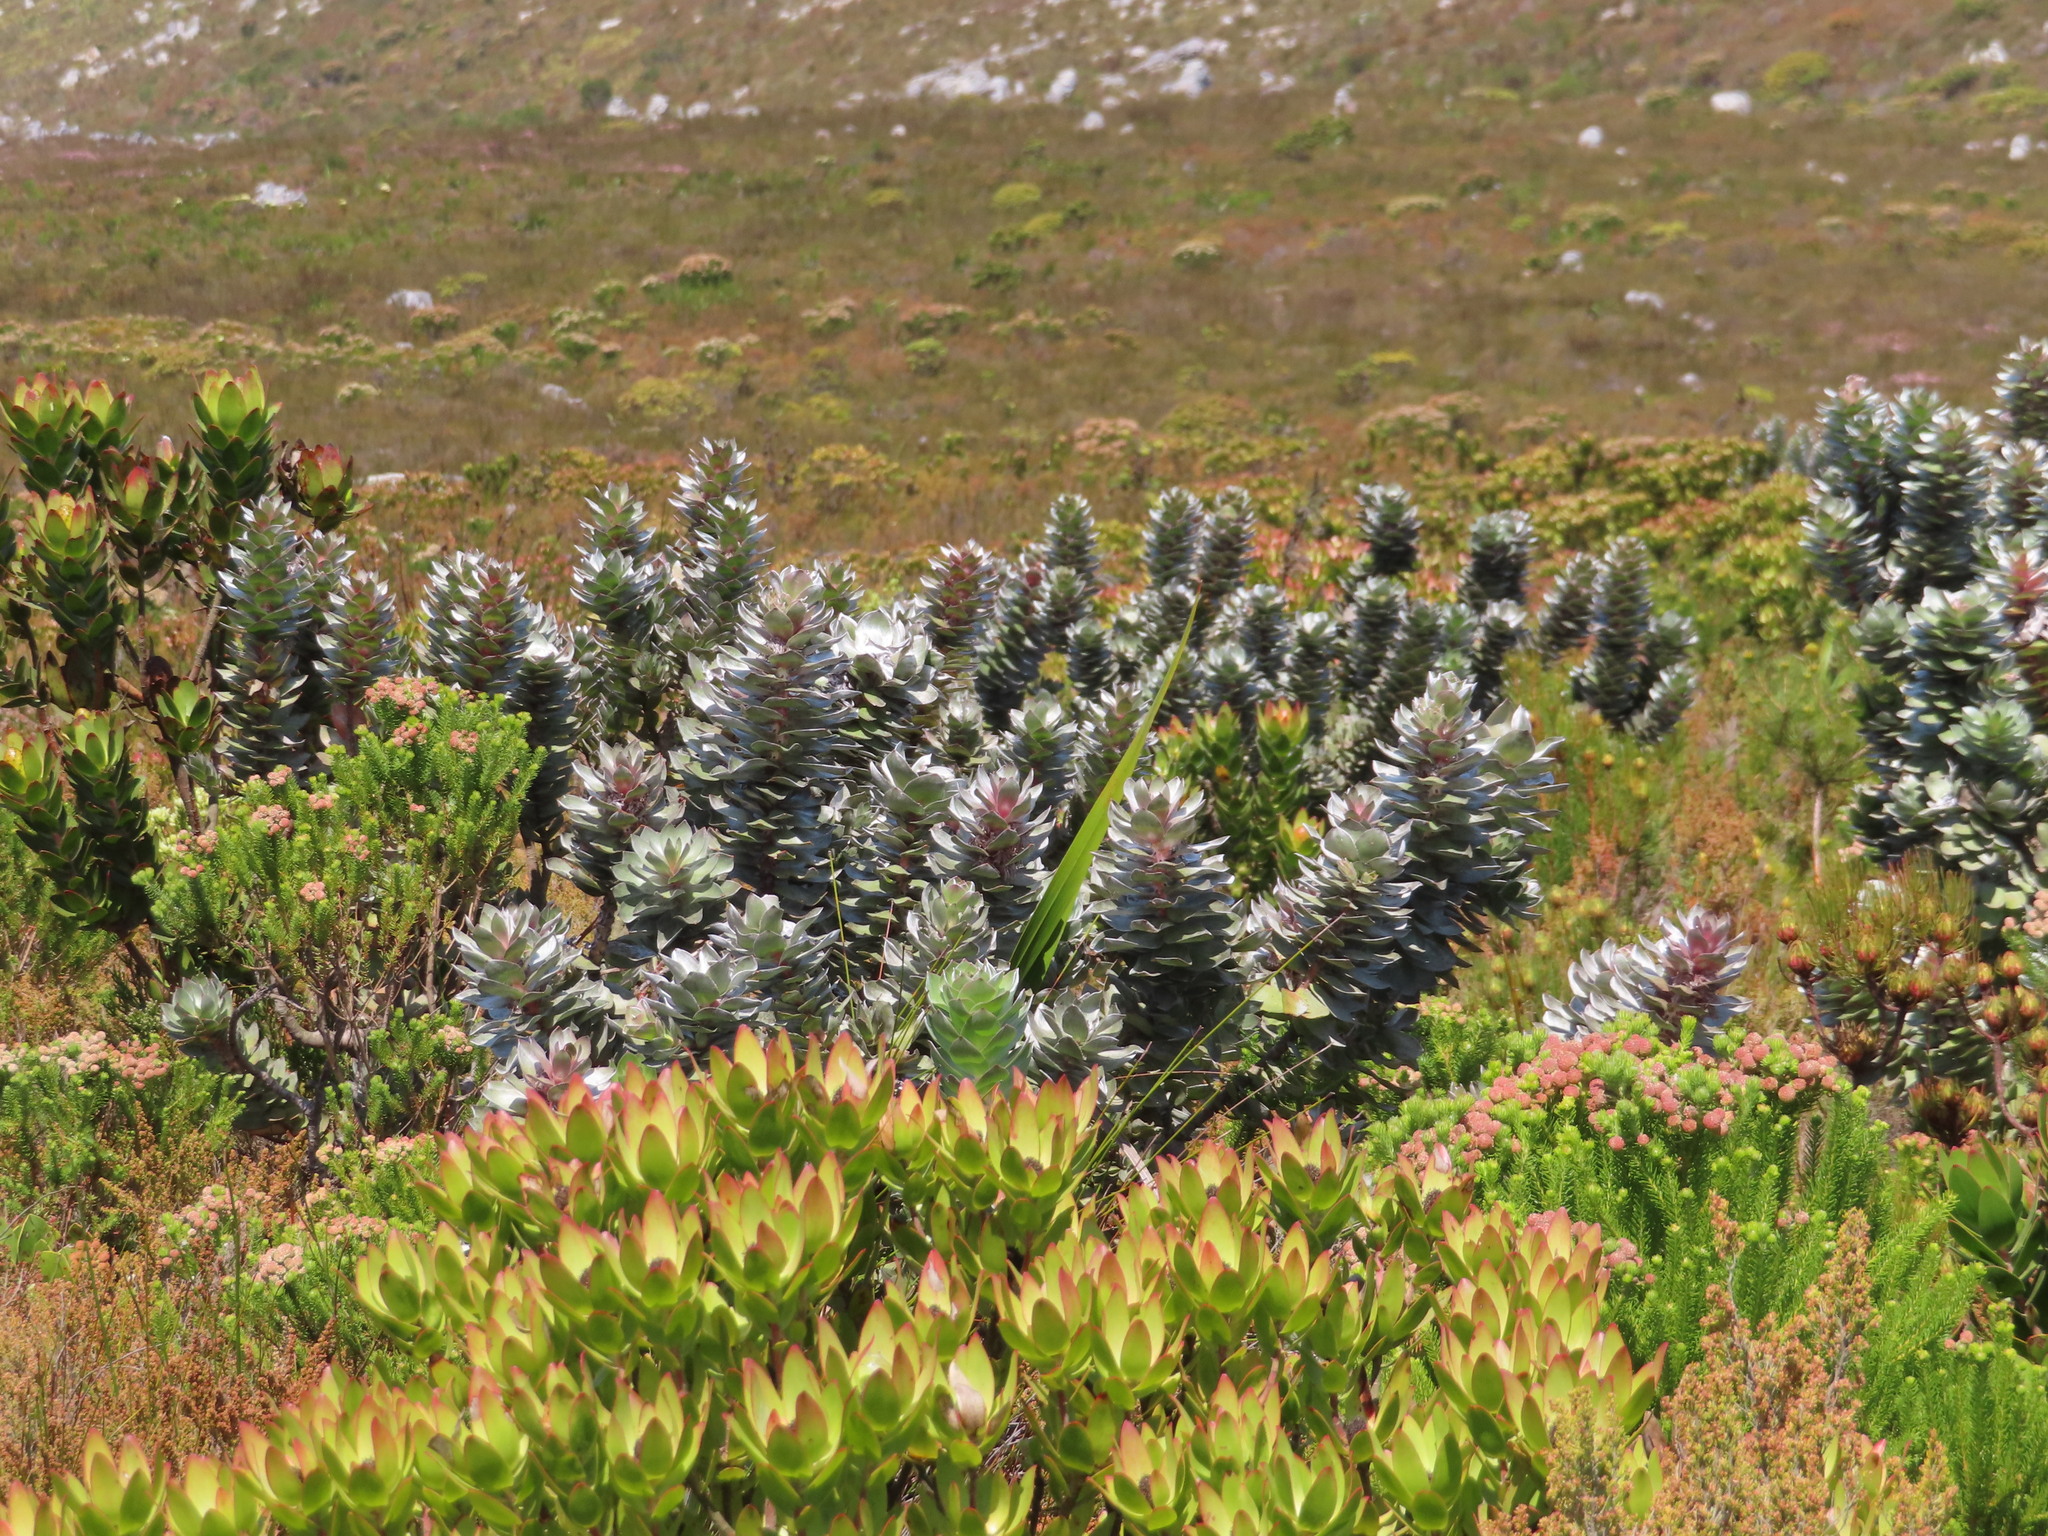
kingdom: Plantae
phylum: Tracheophyta
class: Magnoliopsida
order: Proteales
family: Proteaceae
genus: Mimetes
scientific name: Mimetes argenteus
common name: Silver pagoda
